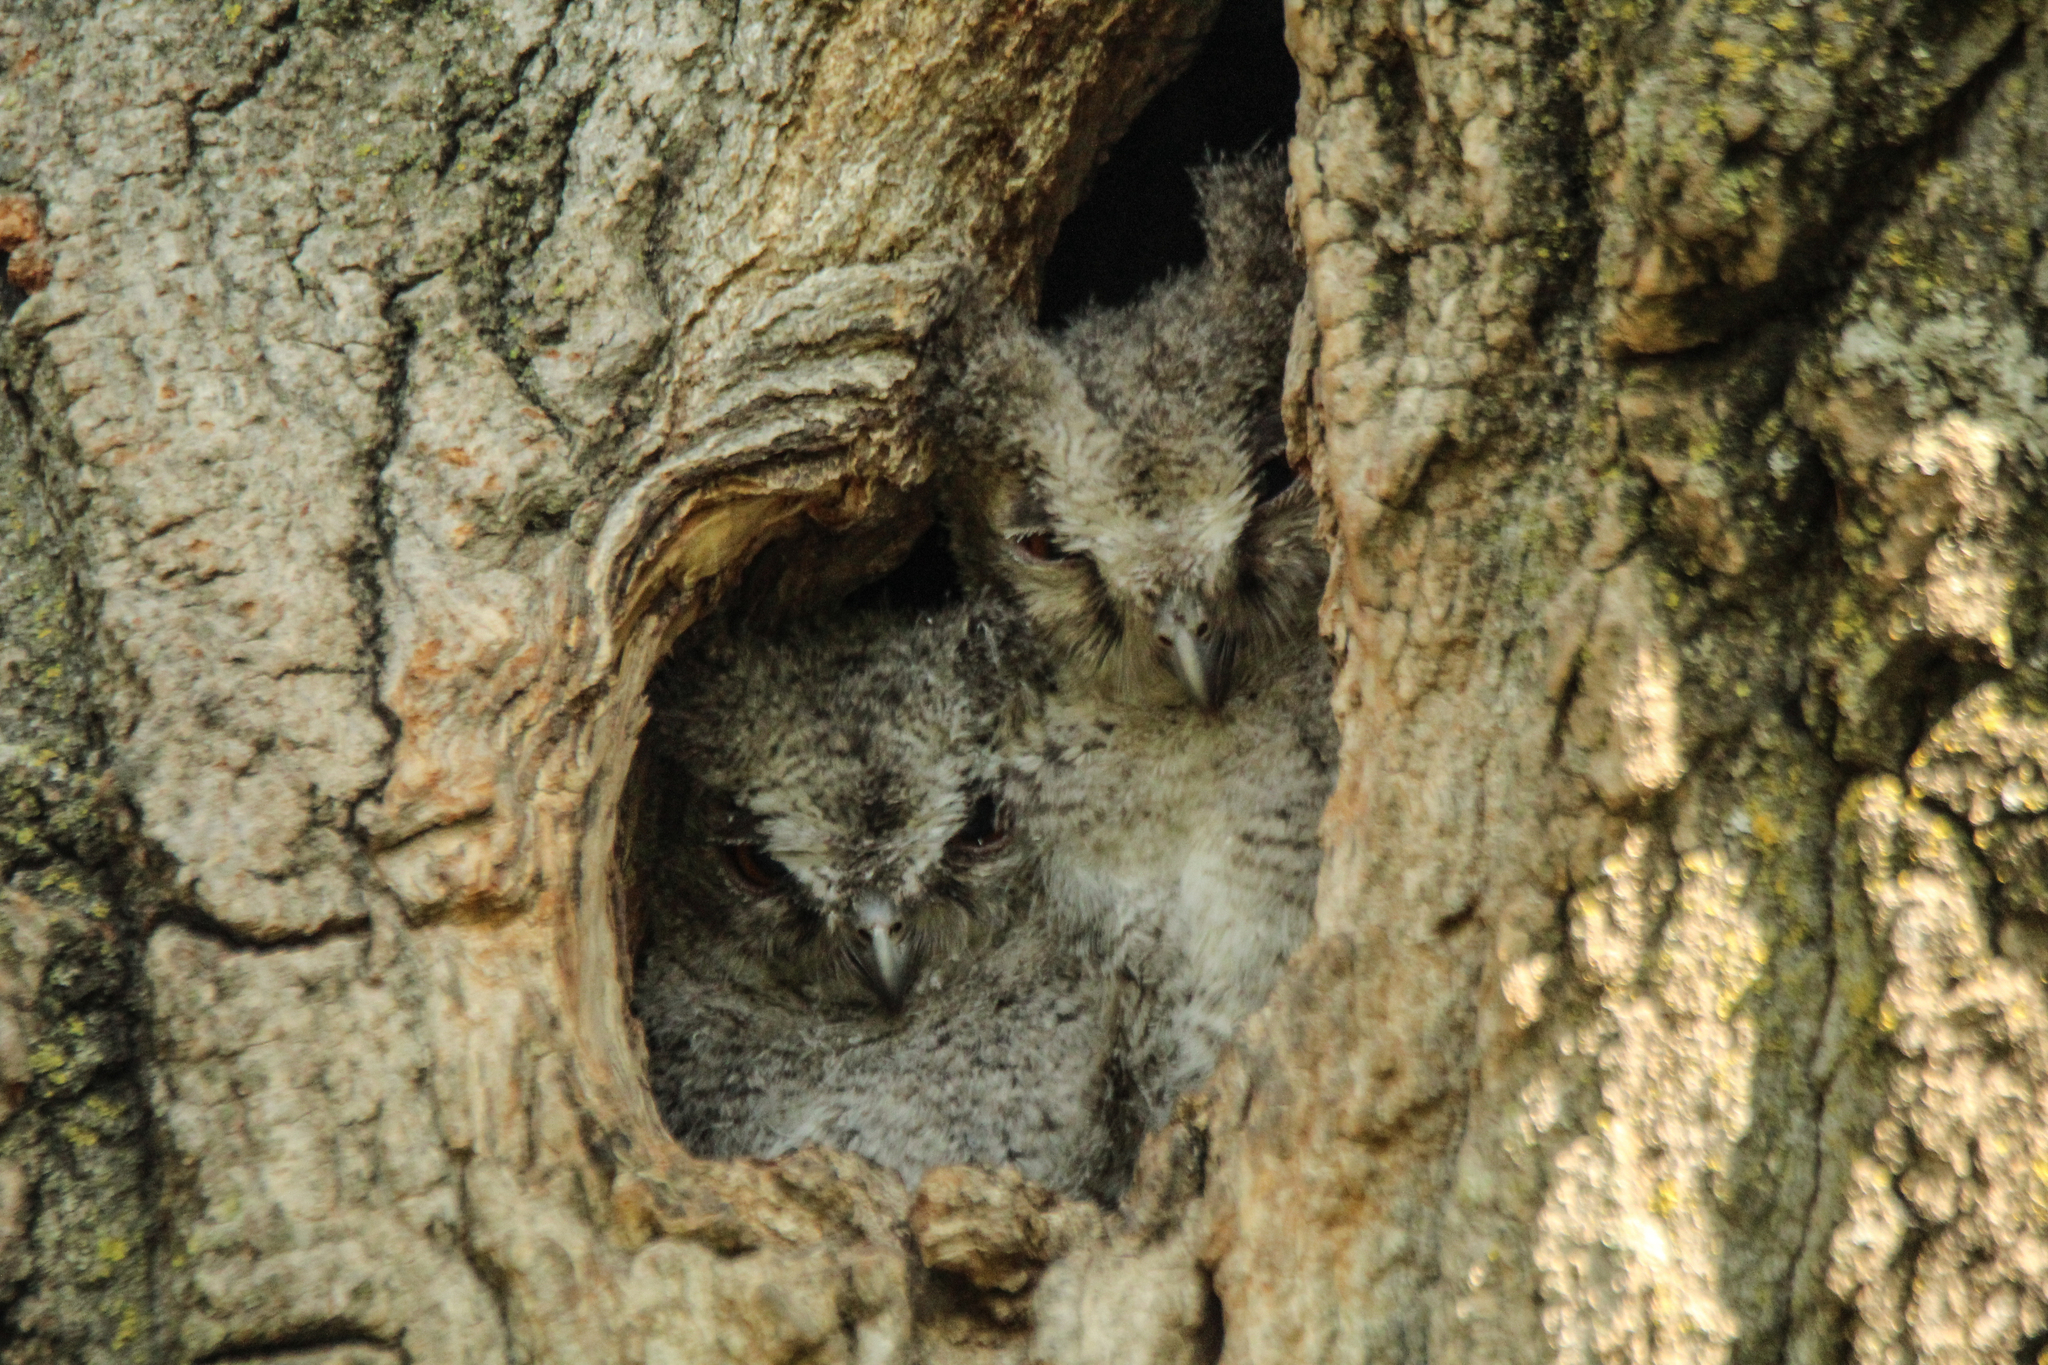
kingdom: Animalia
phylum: Chordata
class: Aves
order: Strigiformes
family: Strigidae
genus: Otus
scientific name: Otus semitorques
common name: Japanese scops owl
